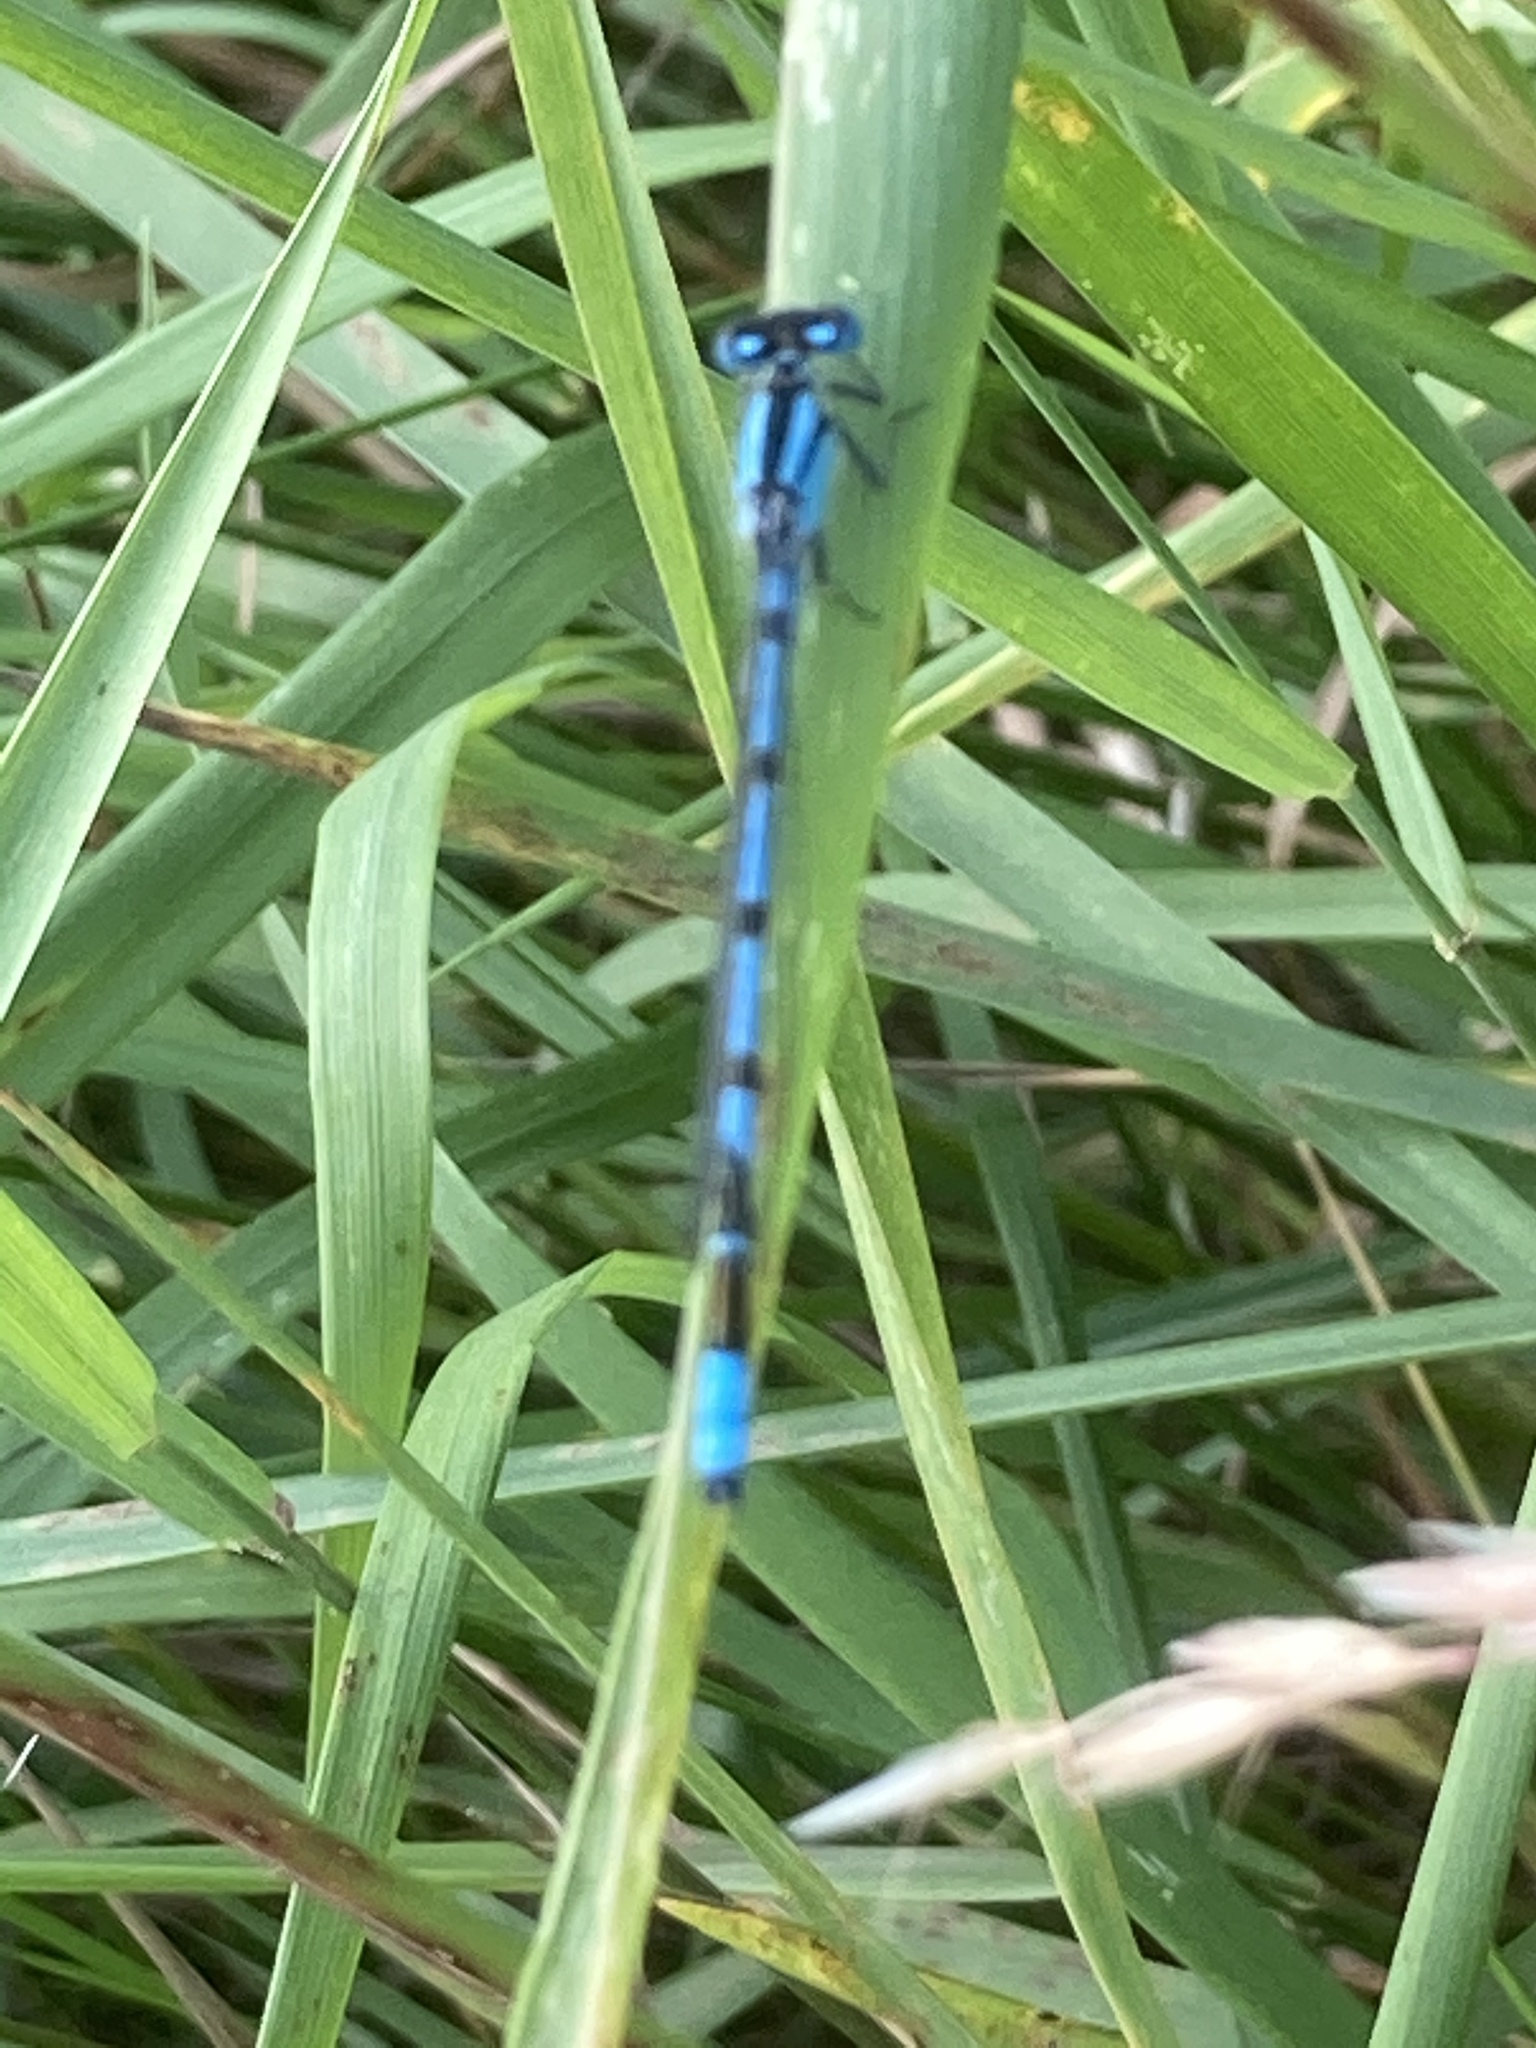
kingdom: Animalia
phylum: Arthropoda
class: Insecta
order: Odonata
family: Coenagrionidae
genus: Enallagma
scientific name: Enallagma cyathigerum
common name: Common blue damselfly
